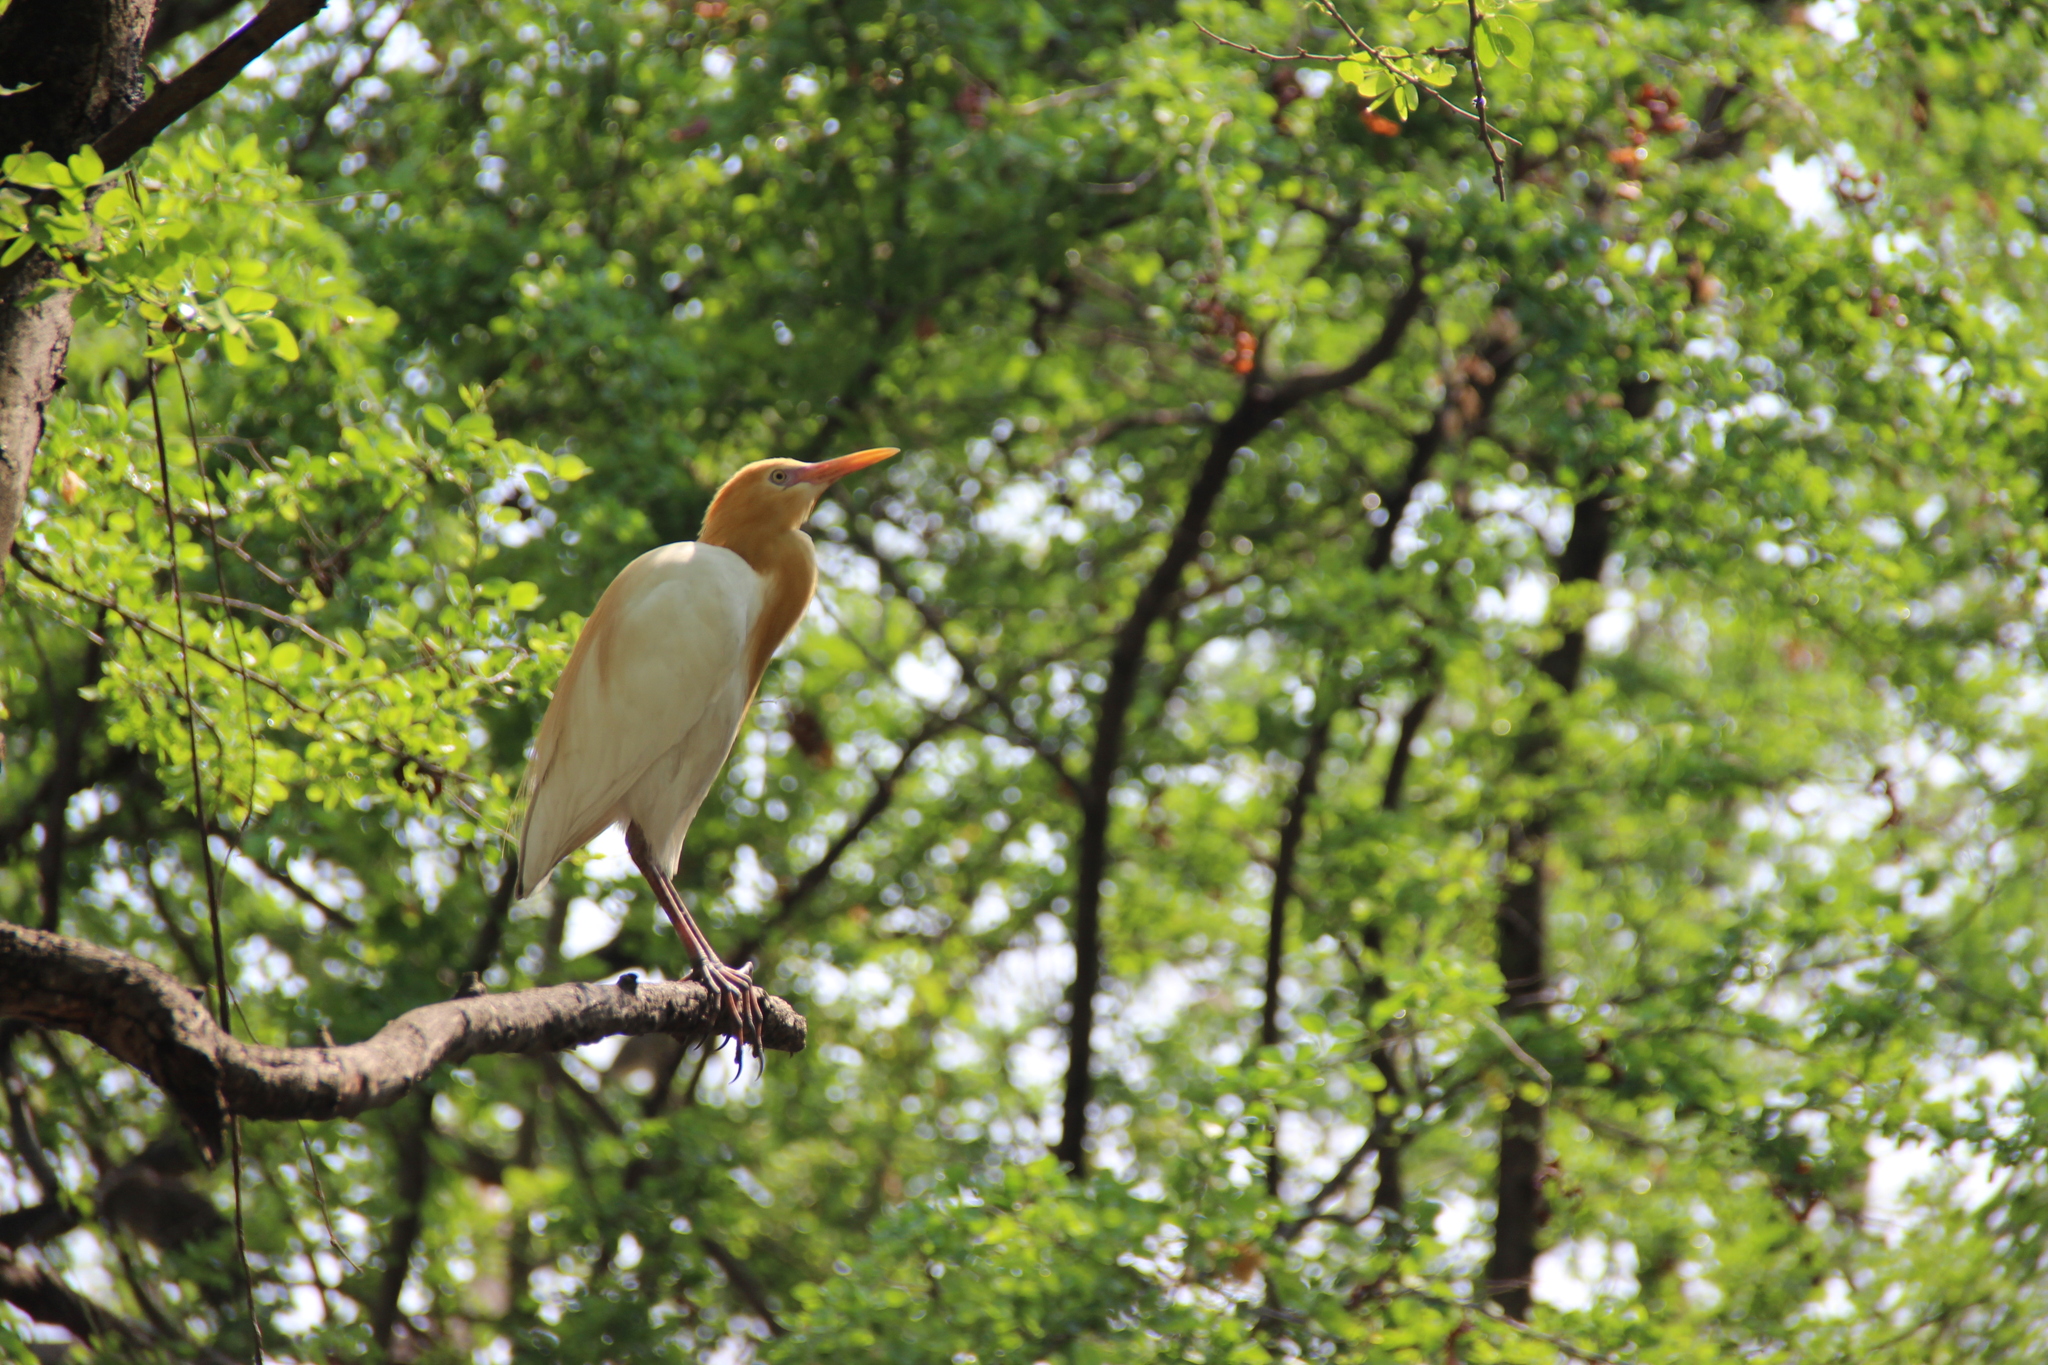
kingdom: Animalia
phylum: Chordata
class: Aves
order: Pelecaniformes
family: Ardeidae
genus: Bubulcus
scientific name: Bubulcus coromandus
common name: Eastern cattle egret
